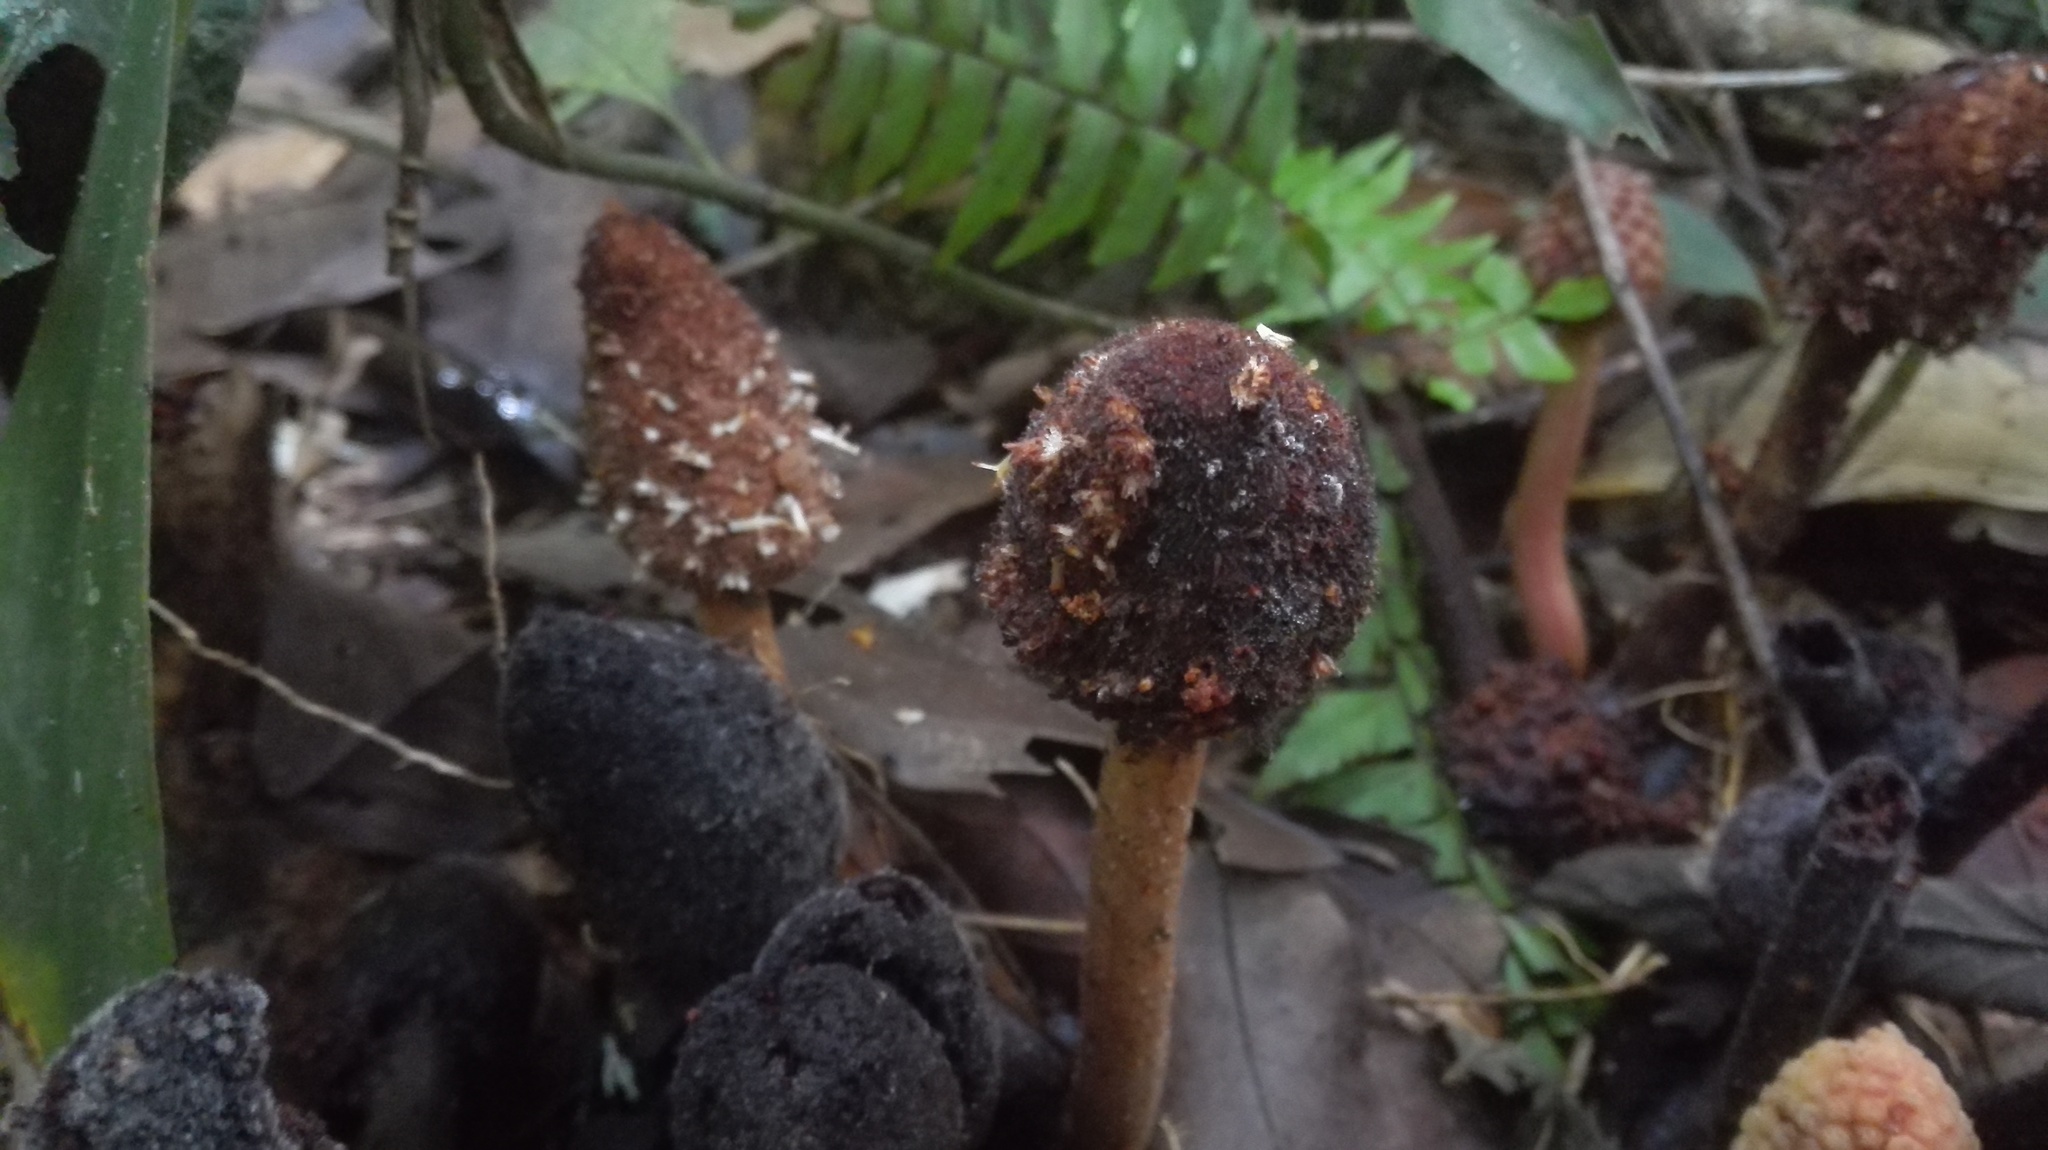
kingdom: Plantae
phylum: Tracheophyta
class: Magnoliopsida
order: Santalales
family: Balanophoraceae
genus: Helosis
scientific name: Helosis cayennensis
